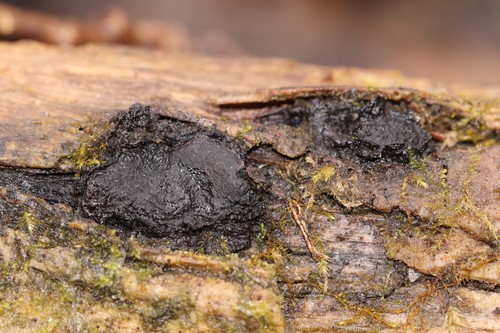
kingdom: Fungi
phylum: Ascomycota
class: Sordariomycetes
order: Xylariales
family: Graphostromataceae
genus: Biscogniauxia
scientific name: Biscogniauxia repanda
